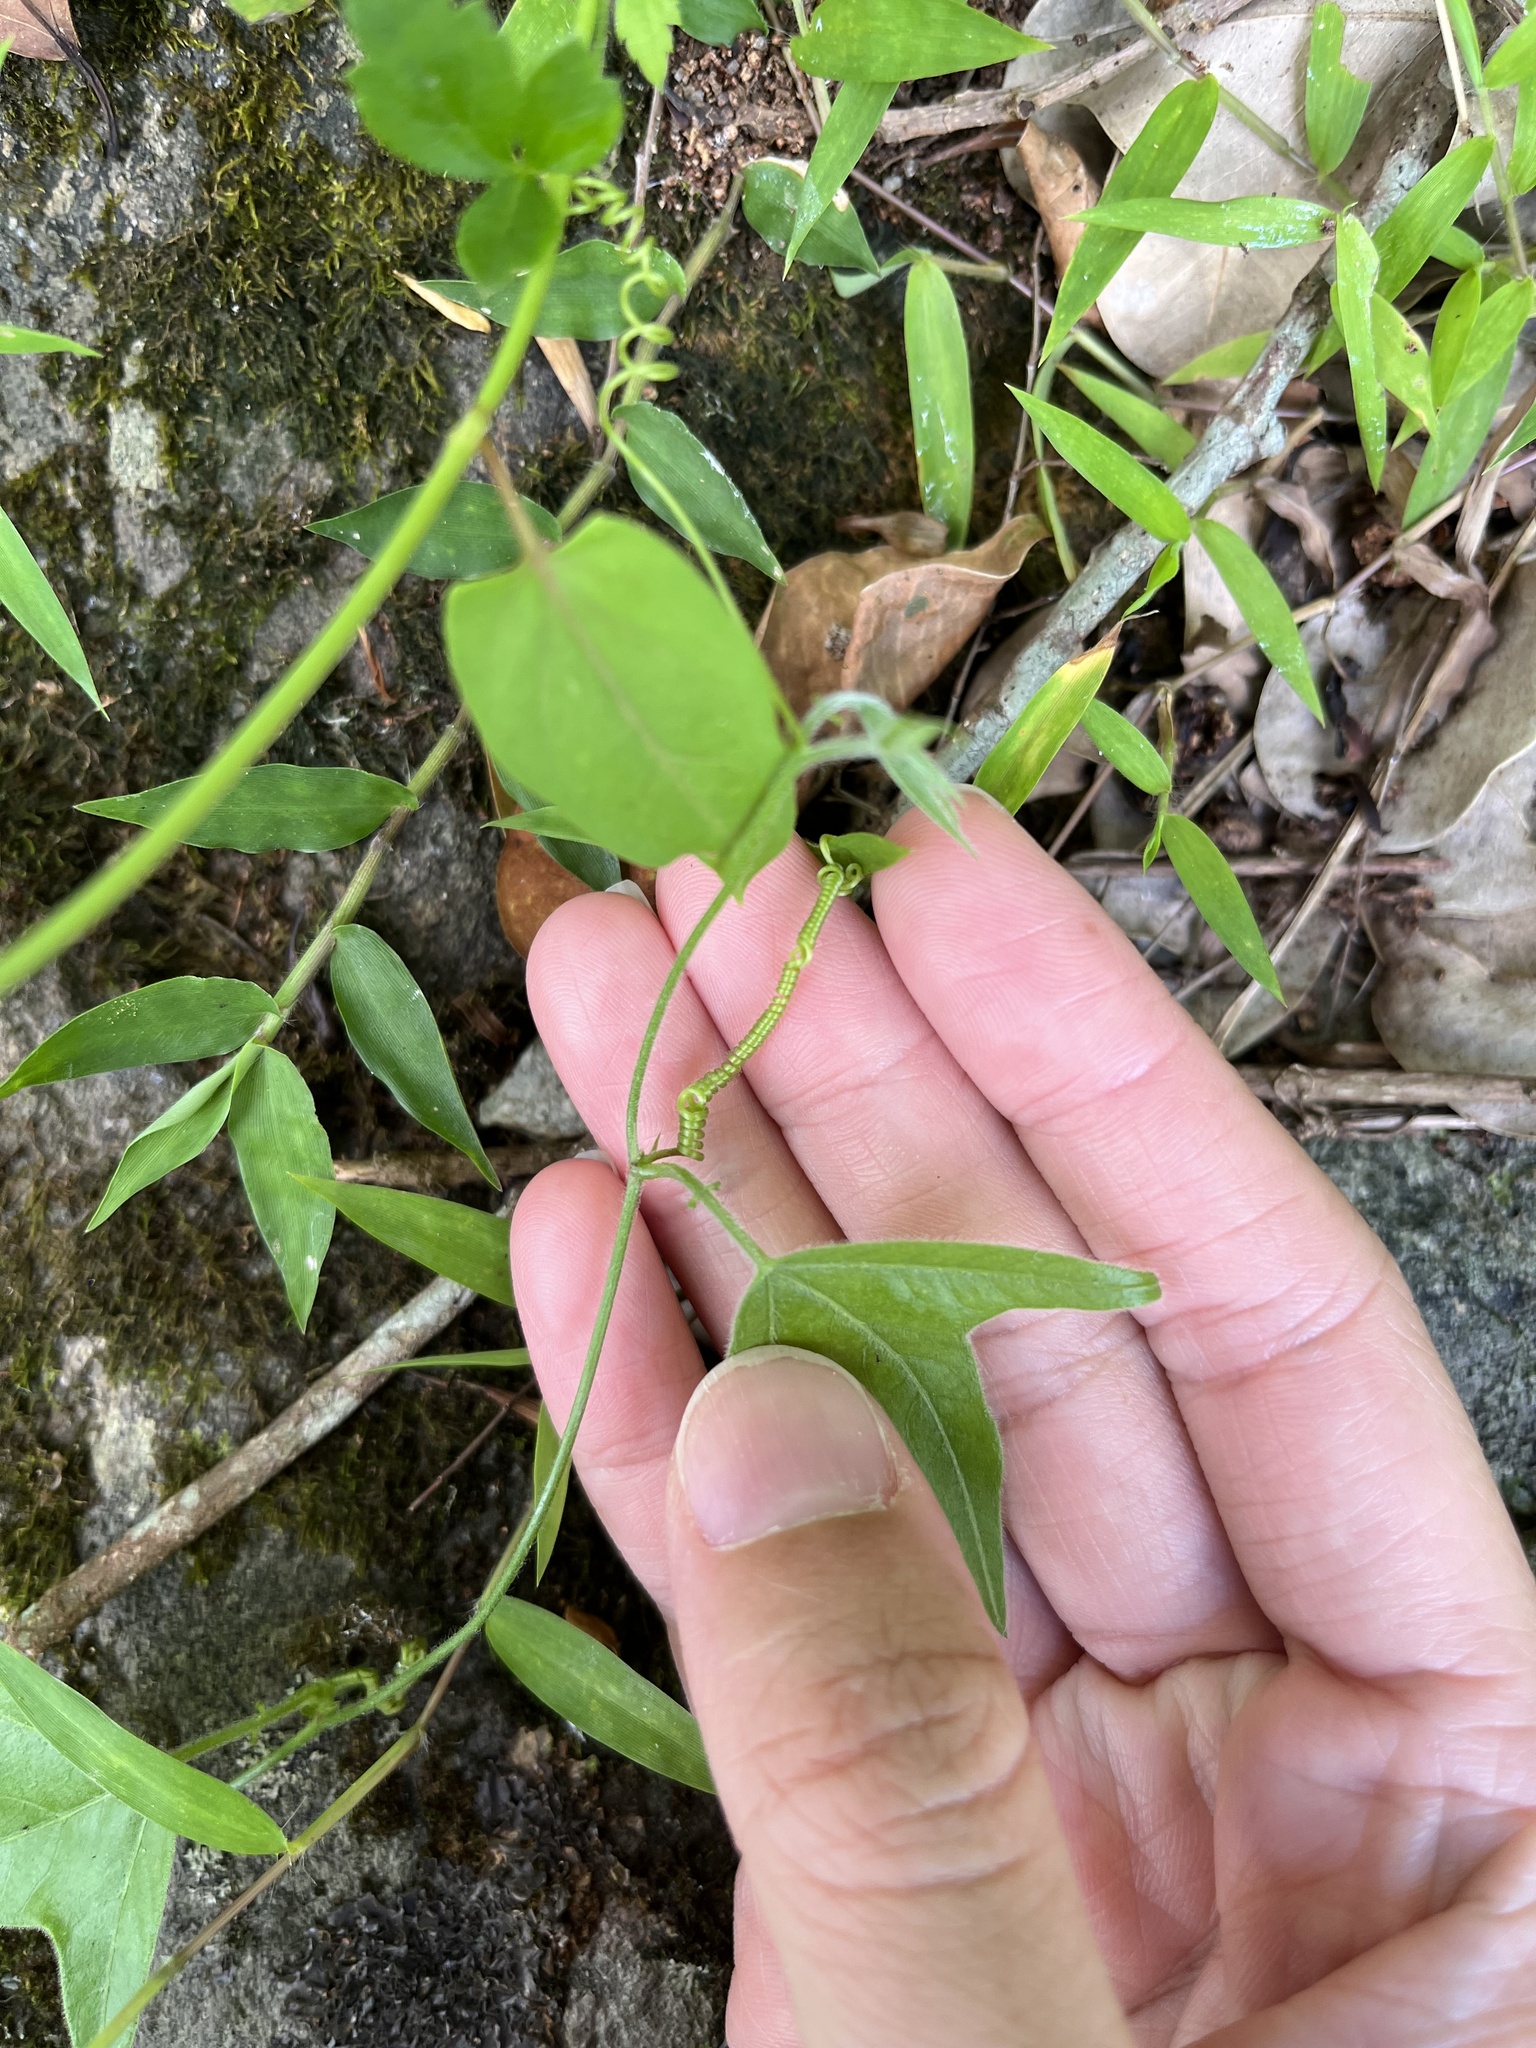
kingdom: Plantae
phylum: Tracheophyta
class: Magnoliopsida
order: Malpighiales
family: Passifloraceae
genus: Passiflora
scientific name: Passiflora suberosa
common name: Wild passionfruit
